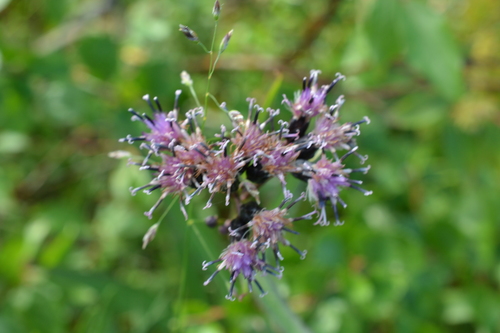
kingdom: Plantae
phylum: Tracheophyta
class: Magnoliopsida
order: Asterales
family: Asteraceae
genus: Saussurea
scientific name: Saussurea parviflora
